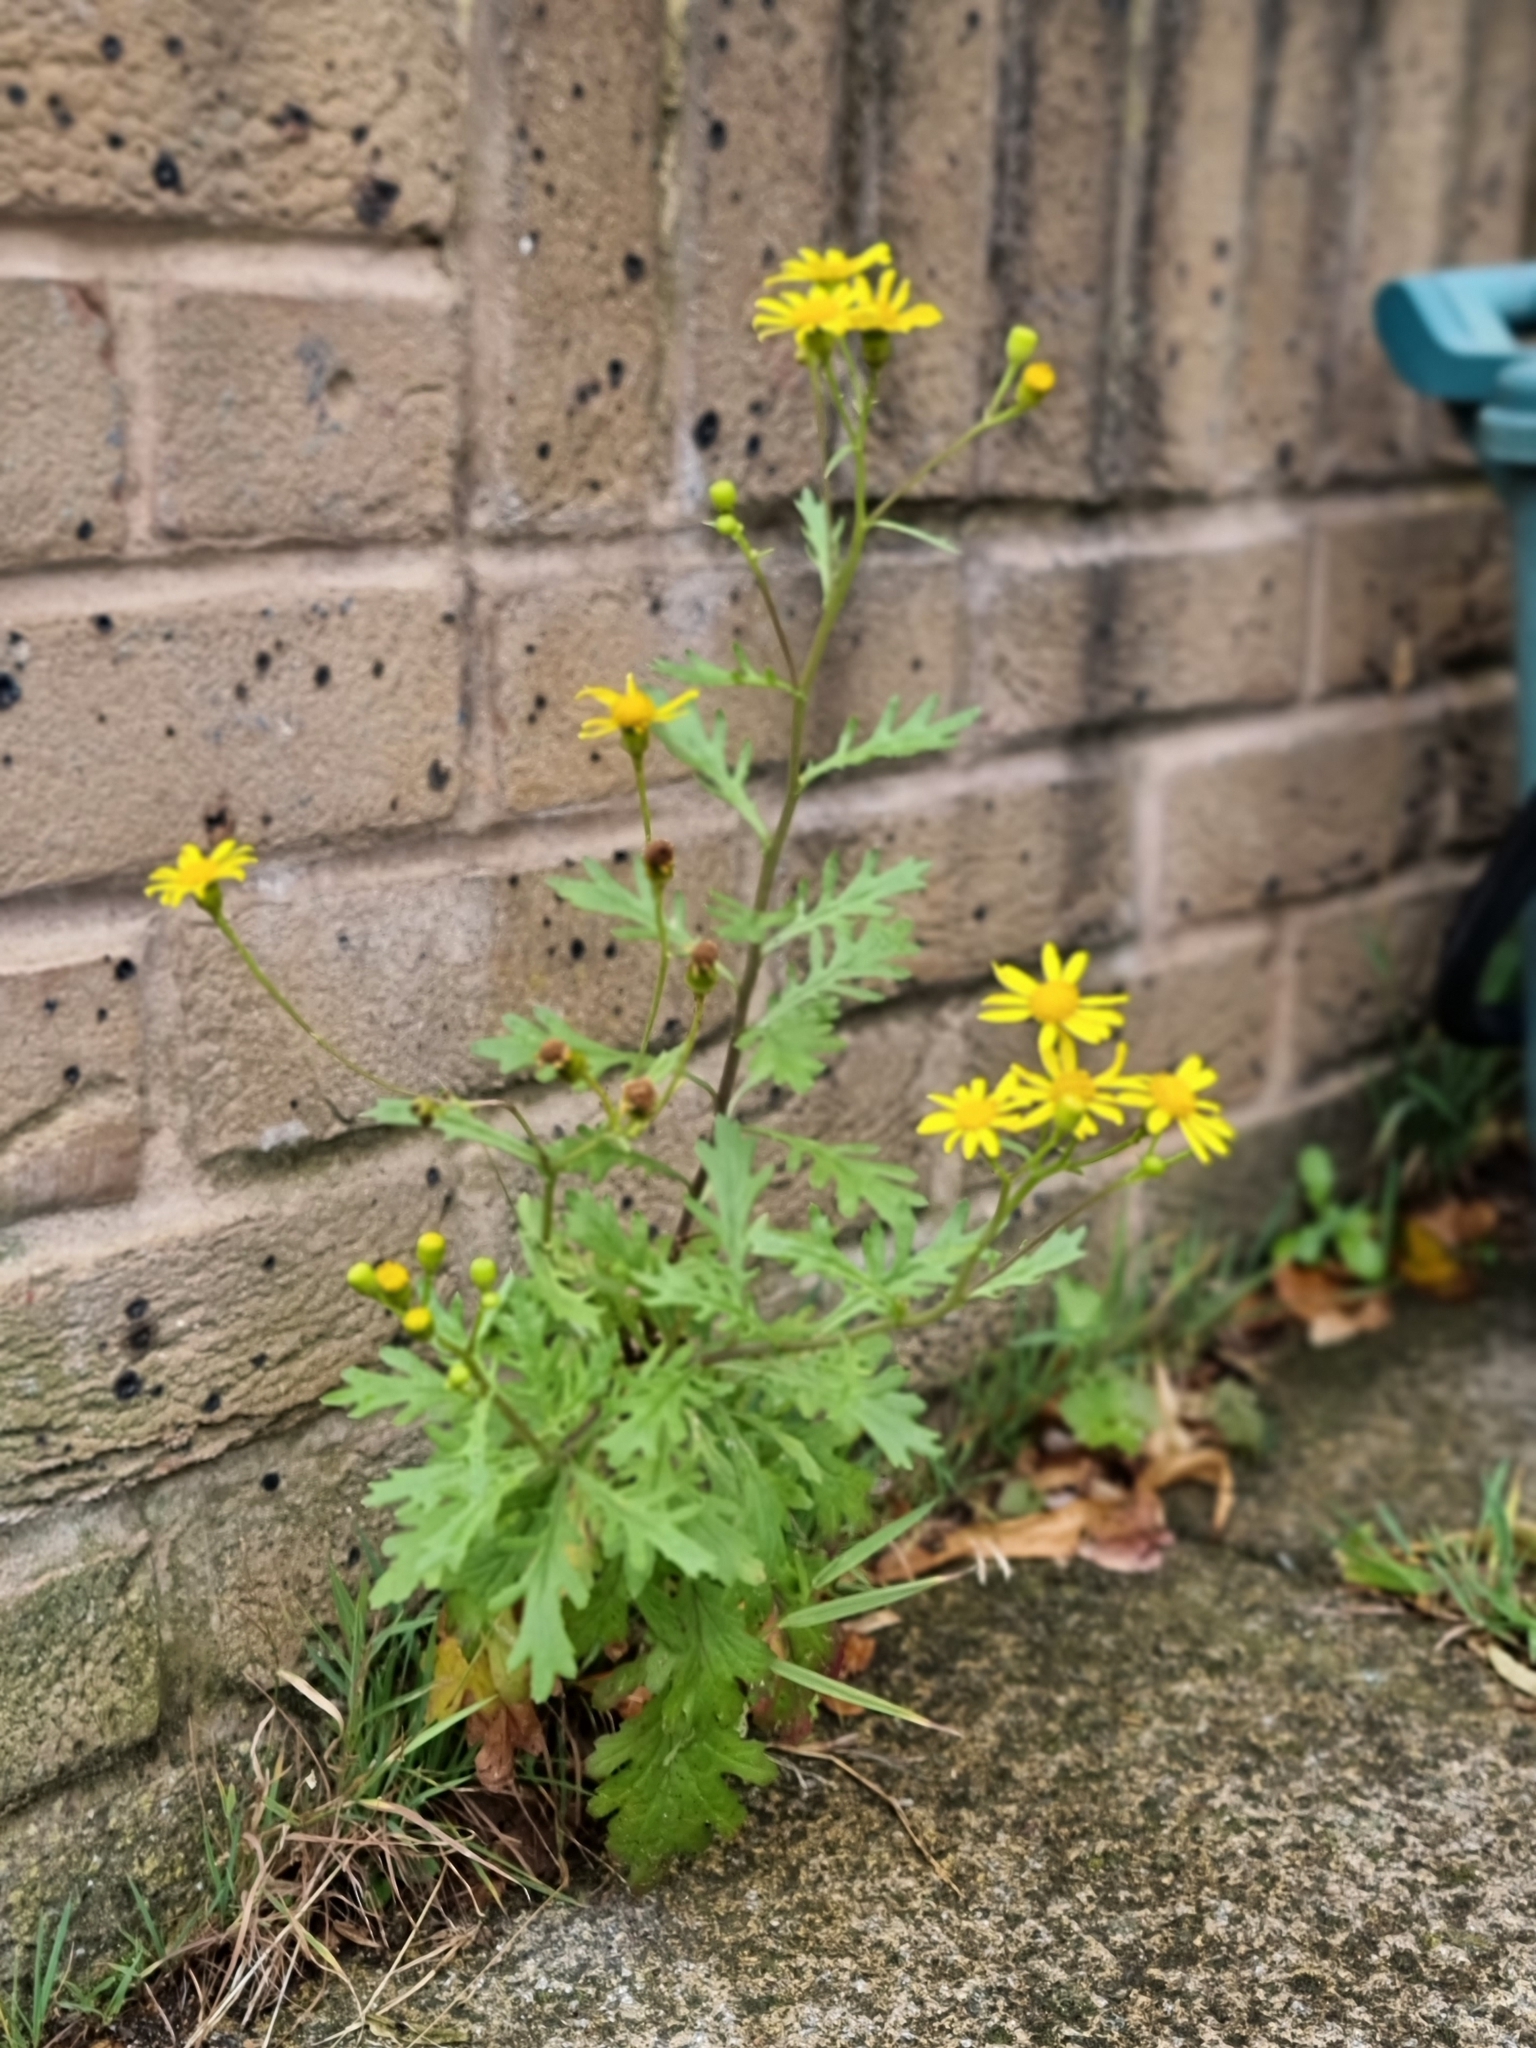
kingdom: Plantae
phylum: Tracheophyta
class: Magnoliopsida
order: Asterales
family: Asteraceae
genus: Senecio
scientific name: Senecio squalidus
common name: Oxford ragwort
